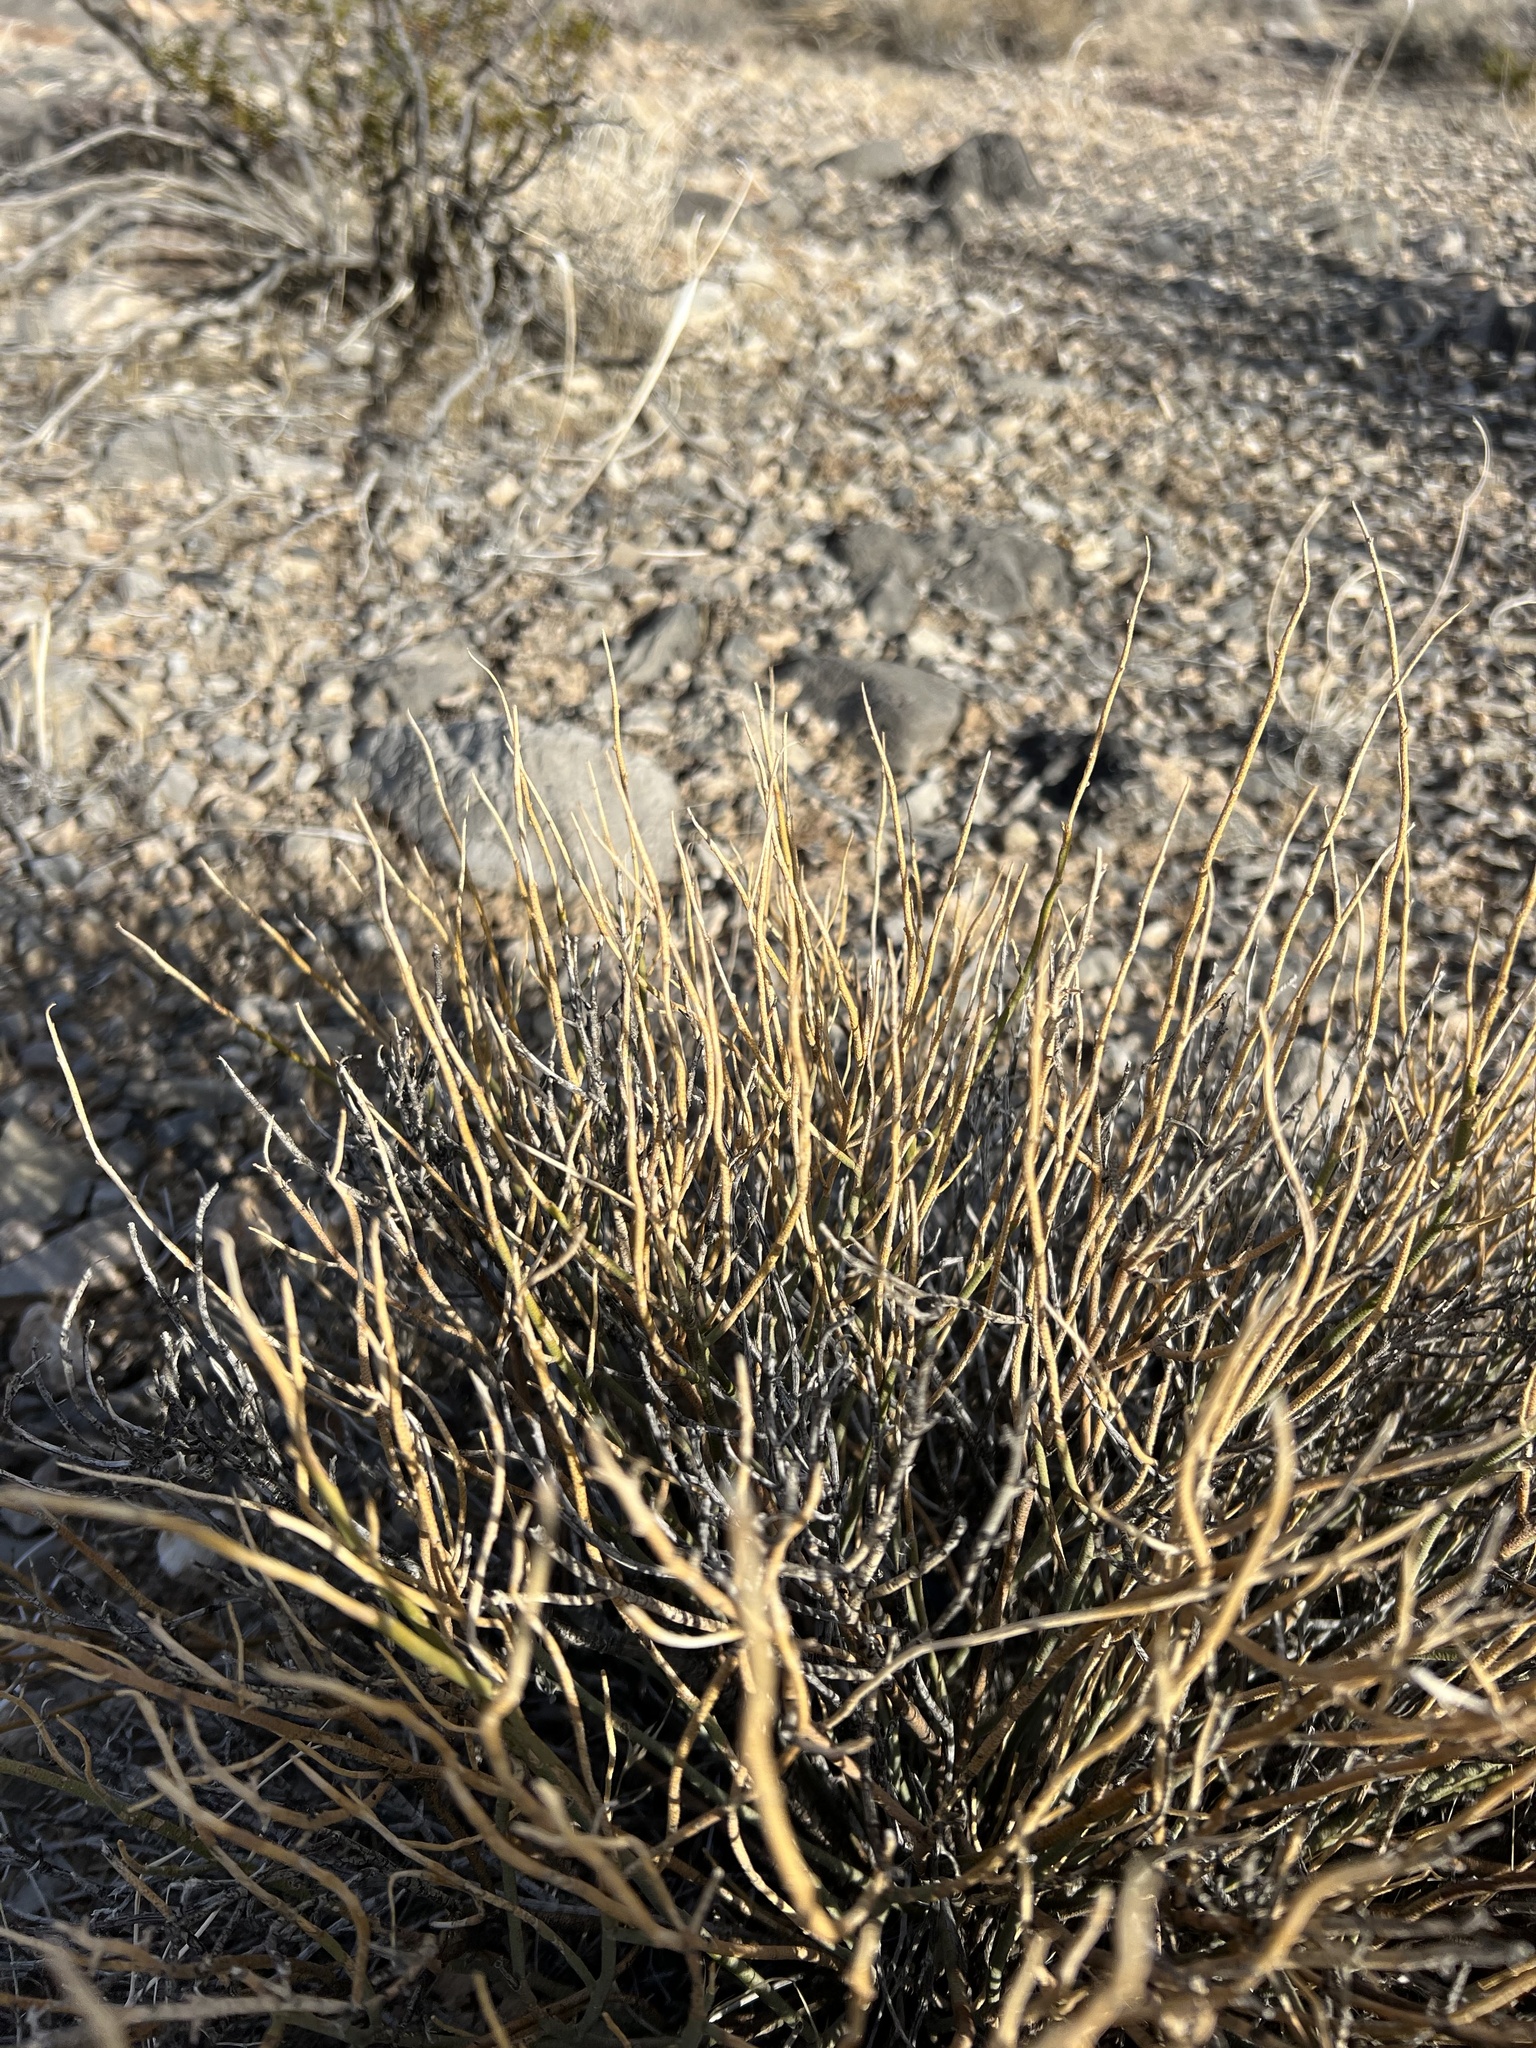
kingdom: Plantae
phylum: Tracheophyta
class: Magnoliopsida
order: Sapindales
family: Rutaceae
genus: Thamnosma
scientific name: Thamnosma montana
